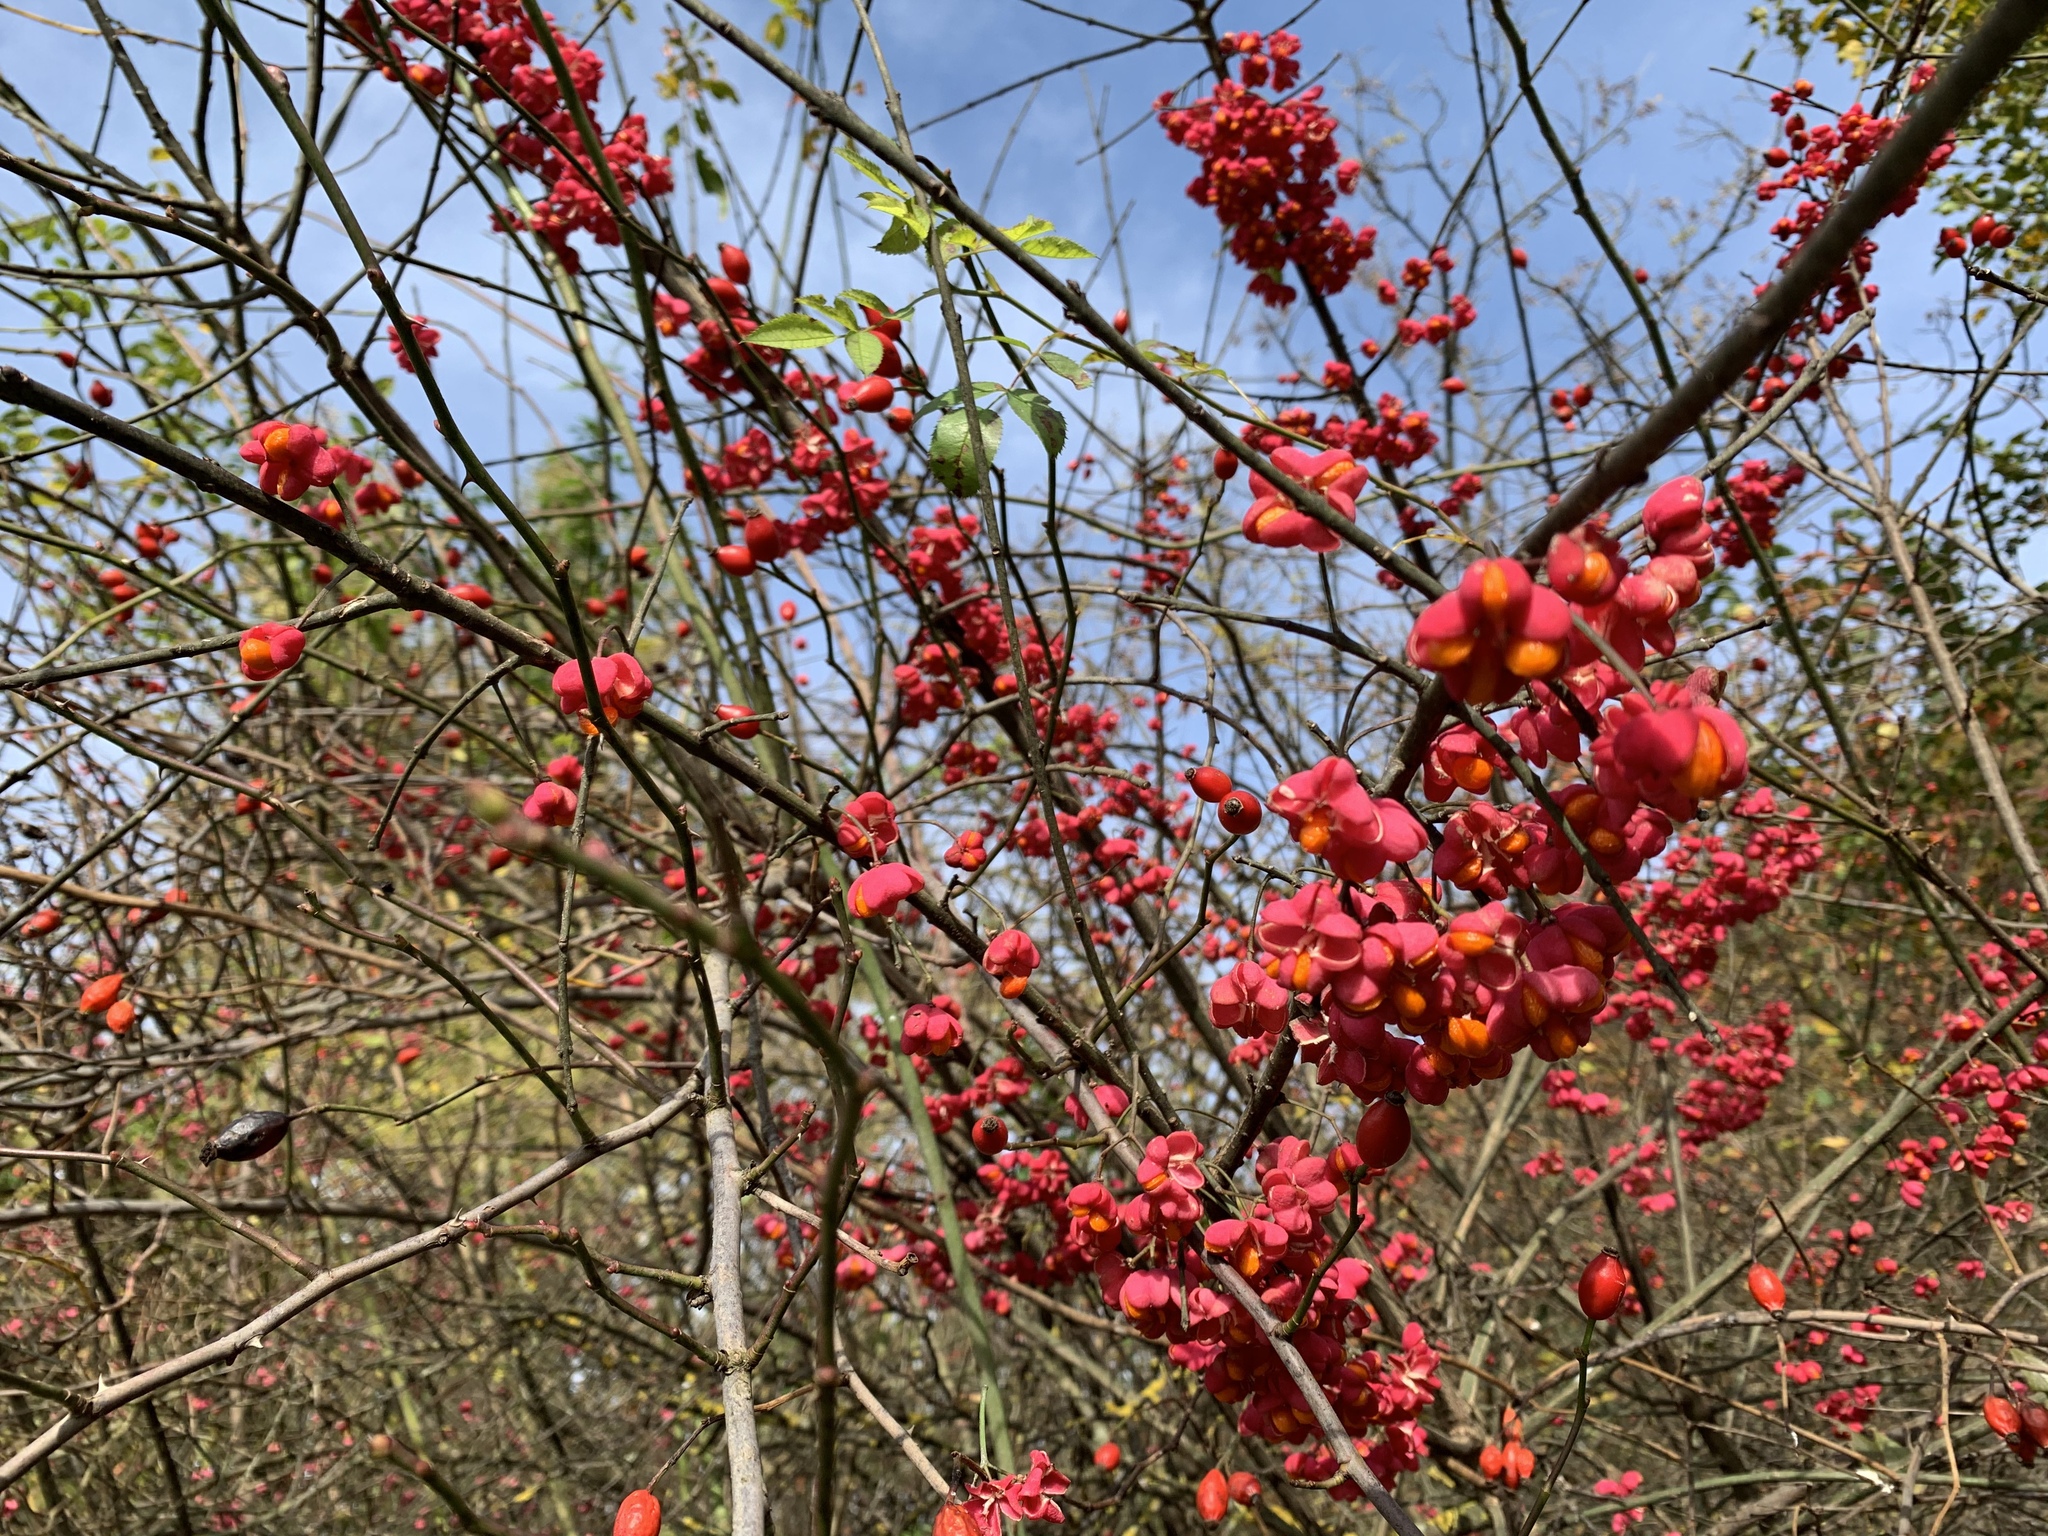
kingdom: Plantae
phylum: Tracheophyta
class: Magnoliopsida
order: Celastrales
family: Celastraceae
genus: Euonymus
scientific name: Euonymus europaeus
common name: Spindle
